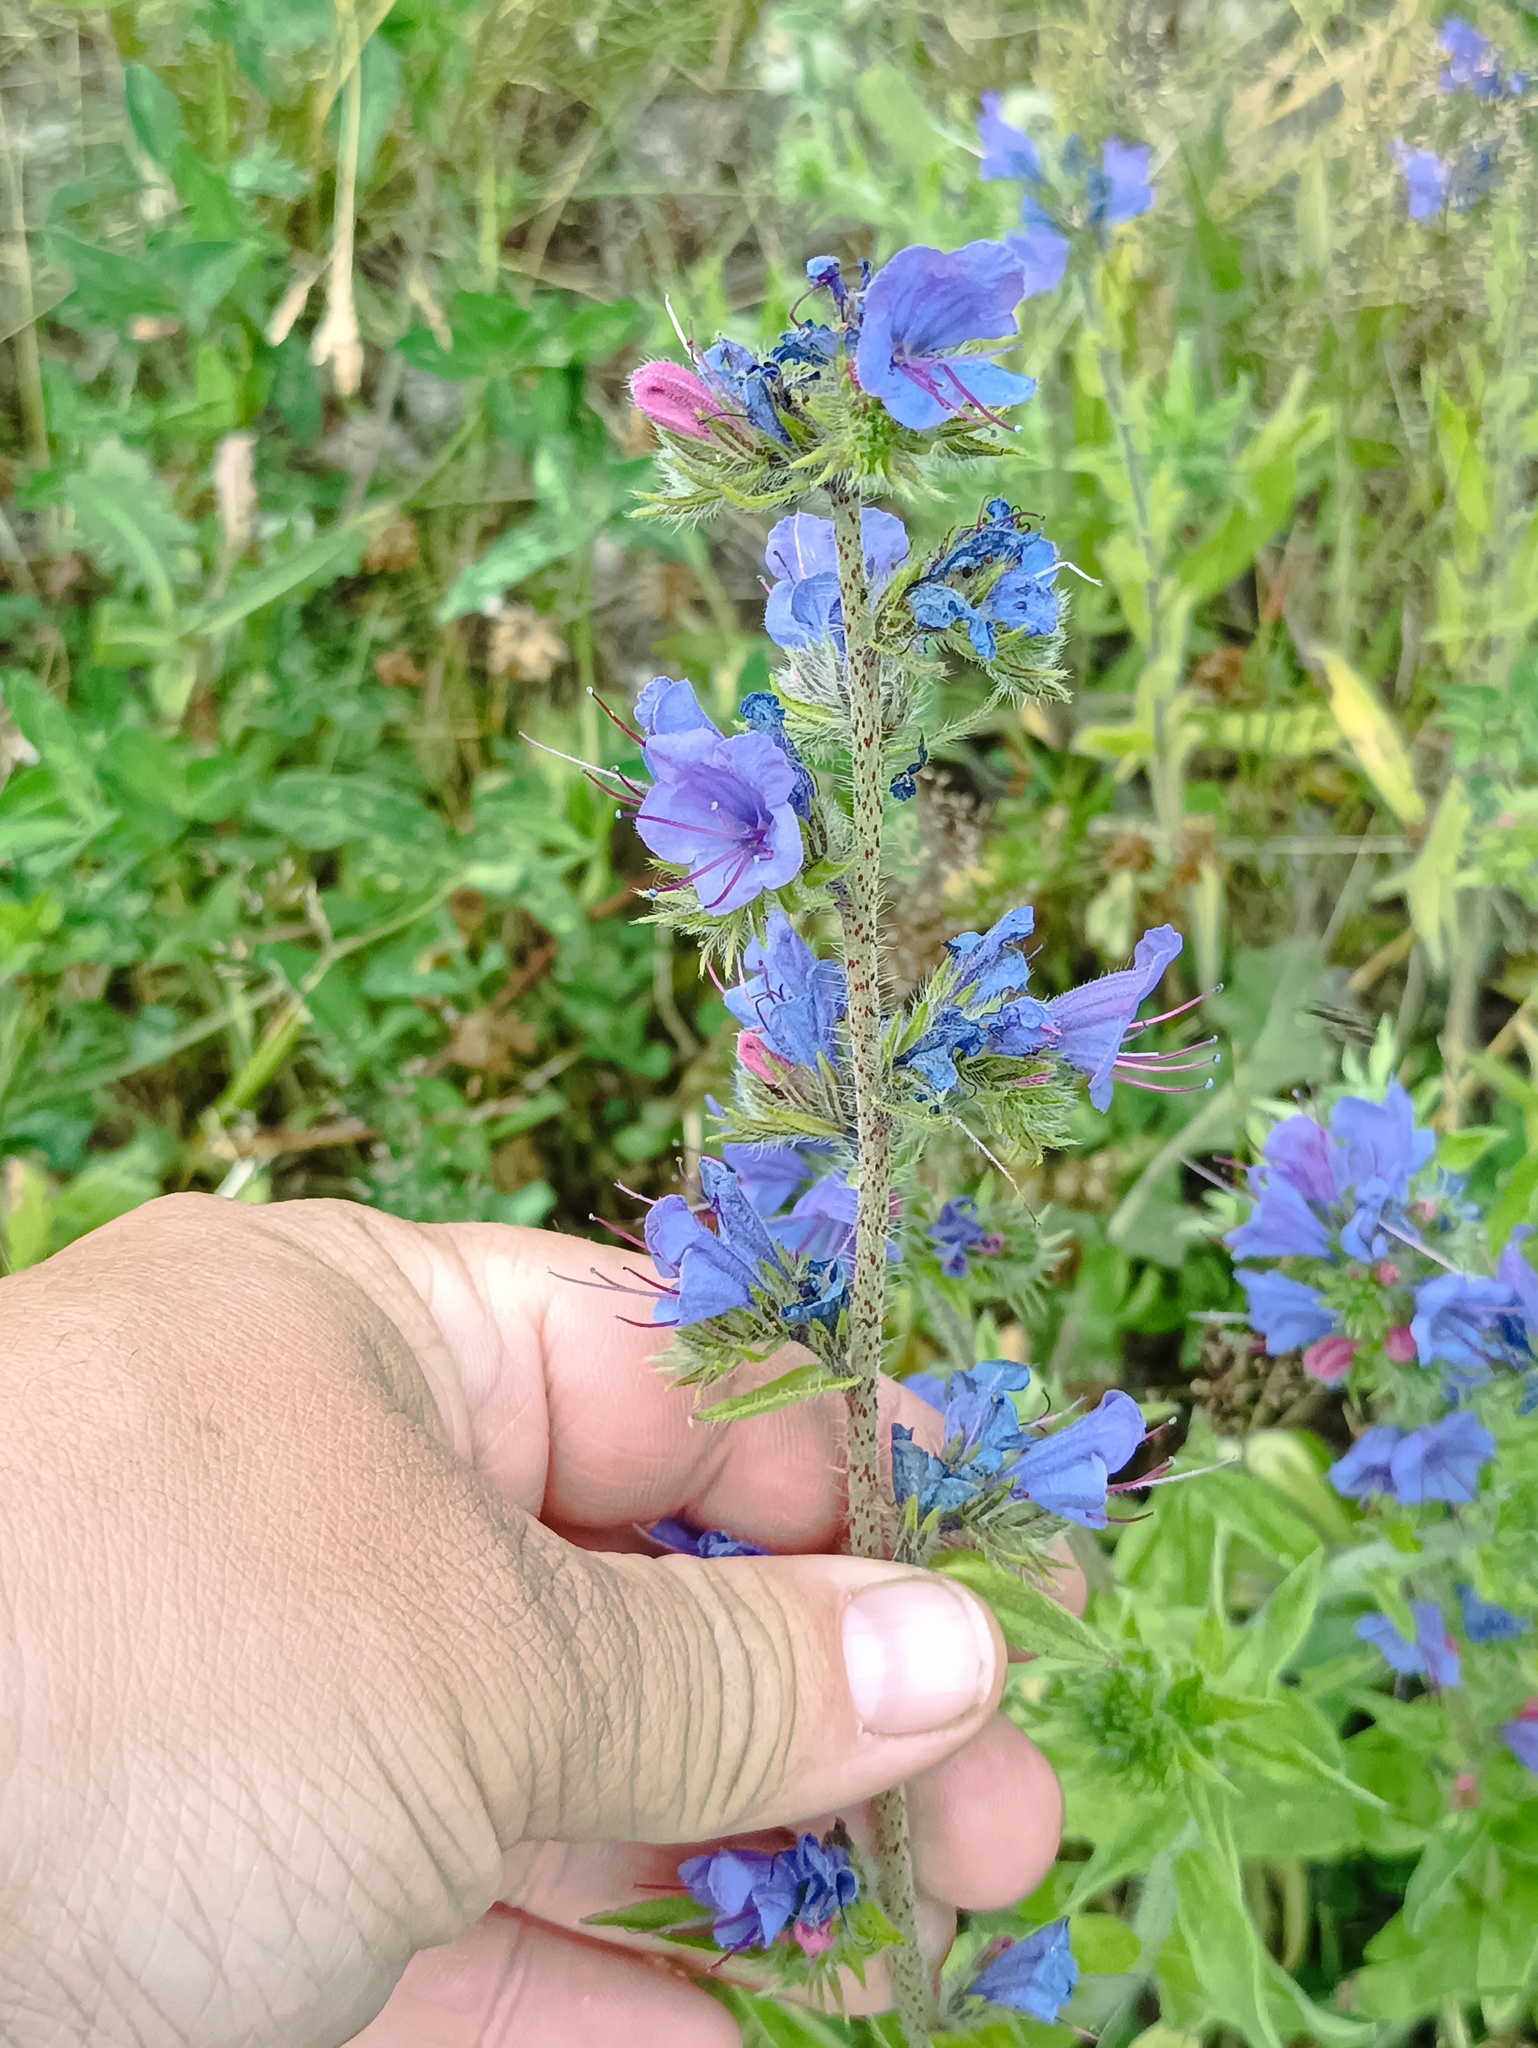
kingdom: Plantae
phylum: Tracheophyta
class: Magnoliopsida
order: Boraginales
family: Boraginaceae
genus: Echium
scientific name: Echium vulgare
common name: Common viper's bugloss
